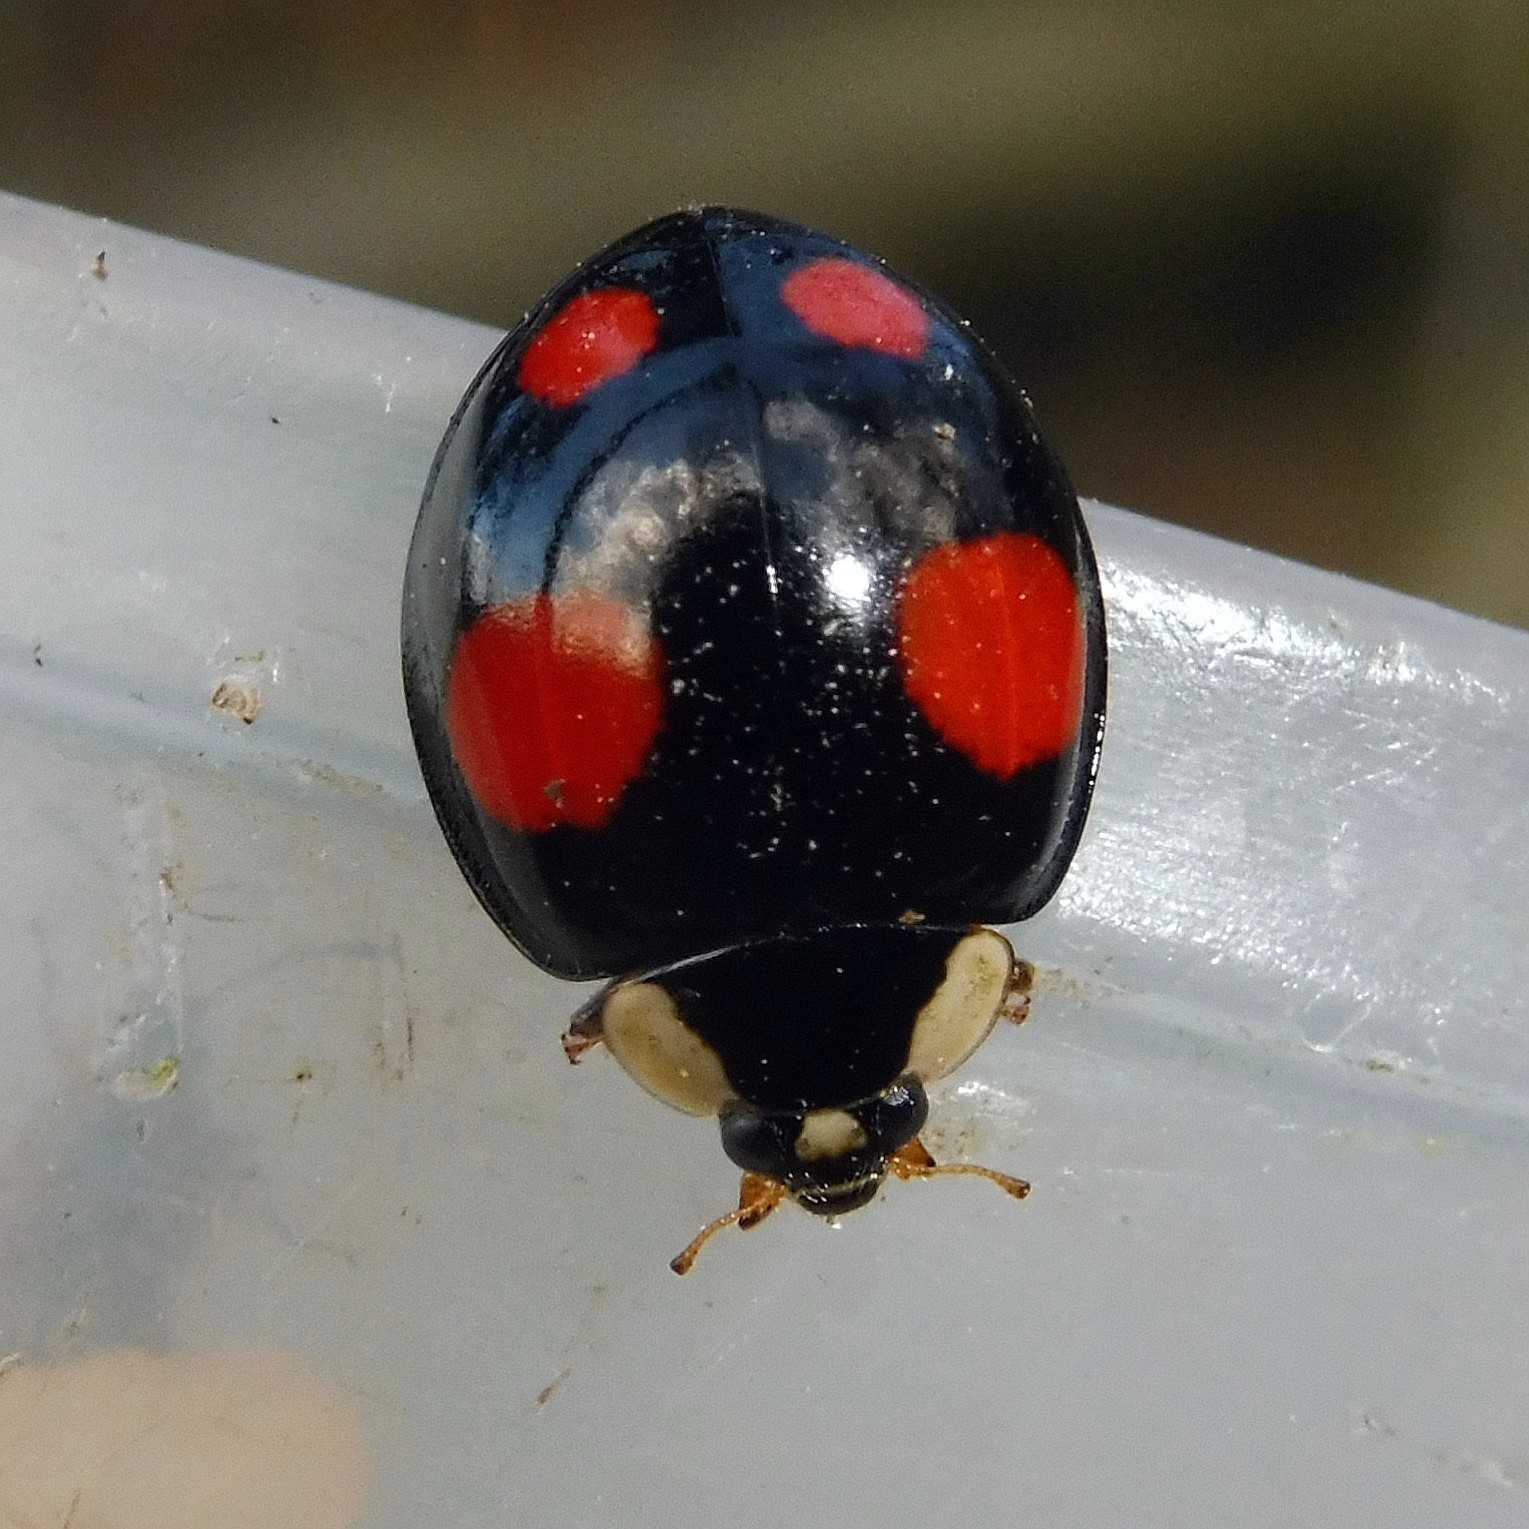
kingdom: Animalia
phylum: Arthropoda
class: Insecta
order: Coleoptera
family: Coccinellidae
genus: Harmonia
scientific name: Harmonia axyridis
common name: Harlequin ladybird
